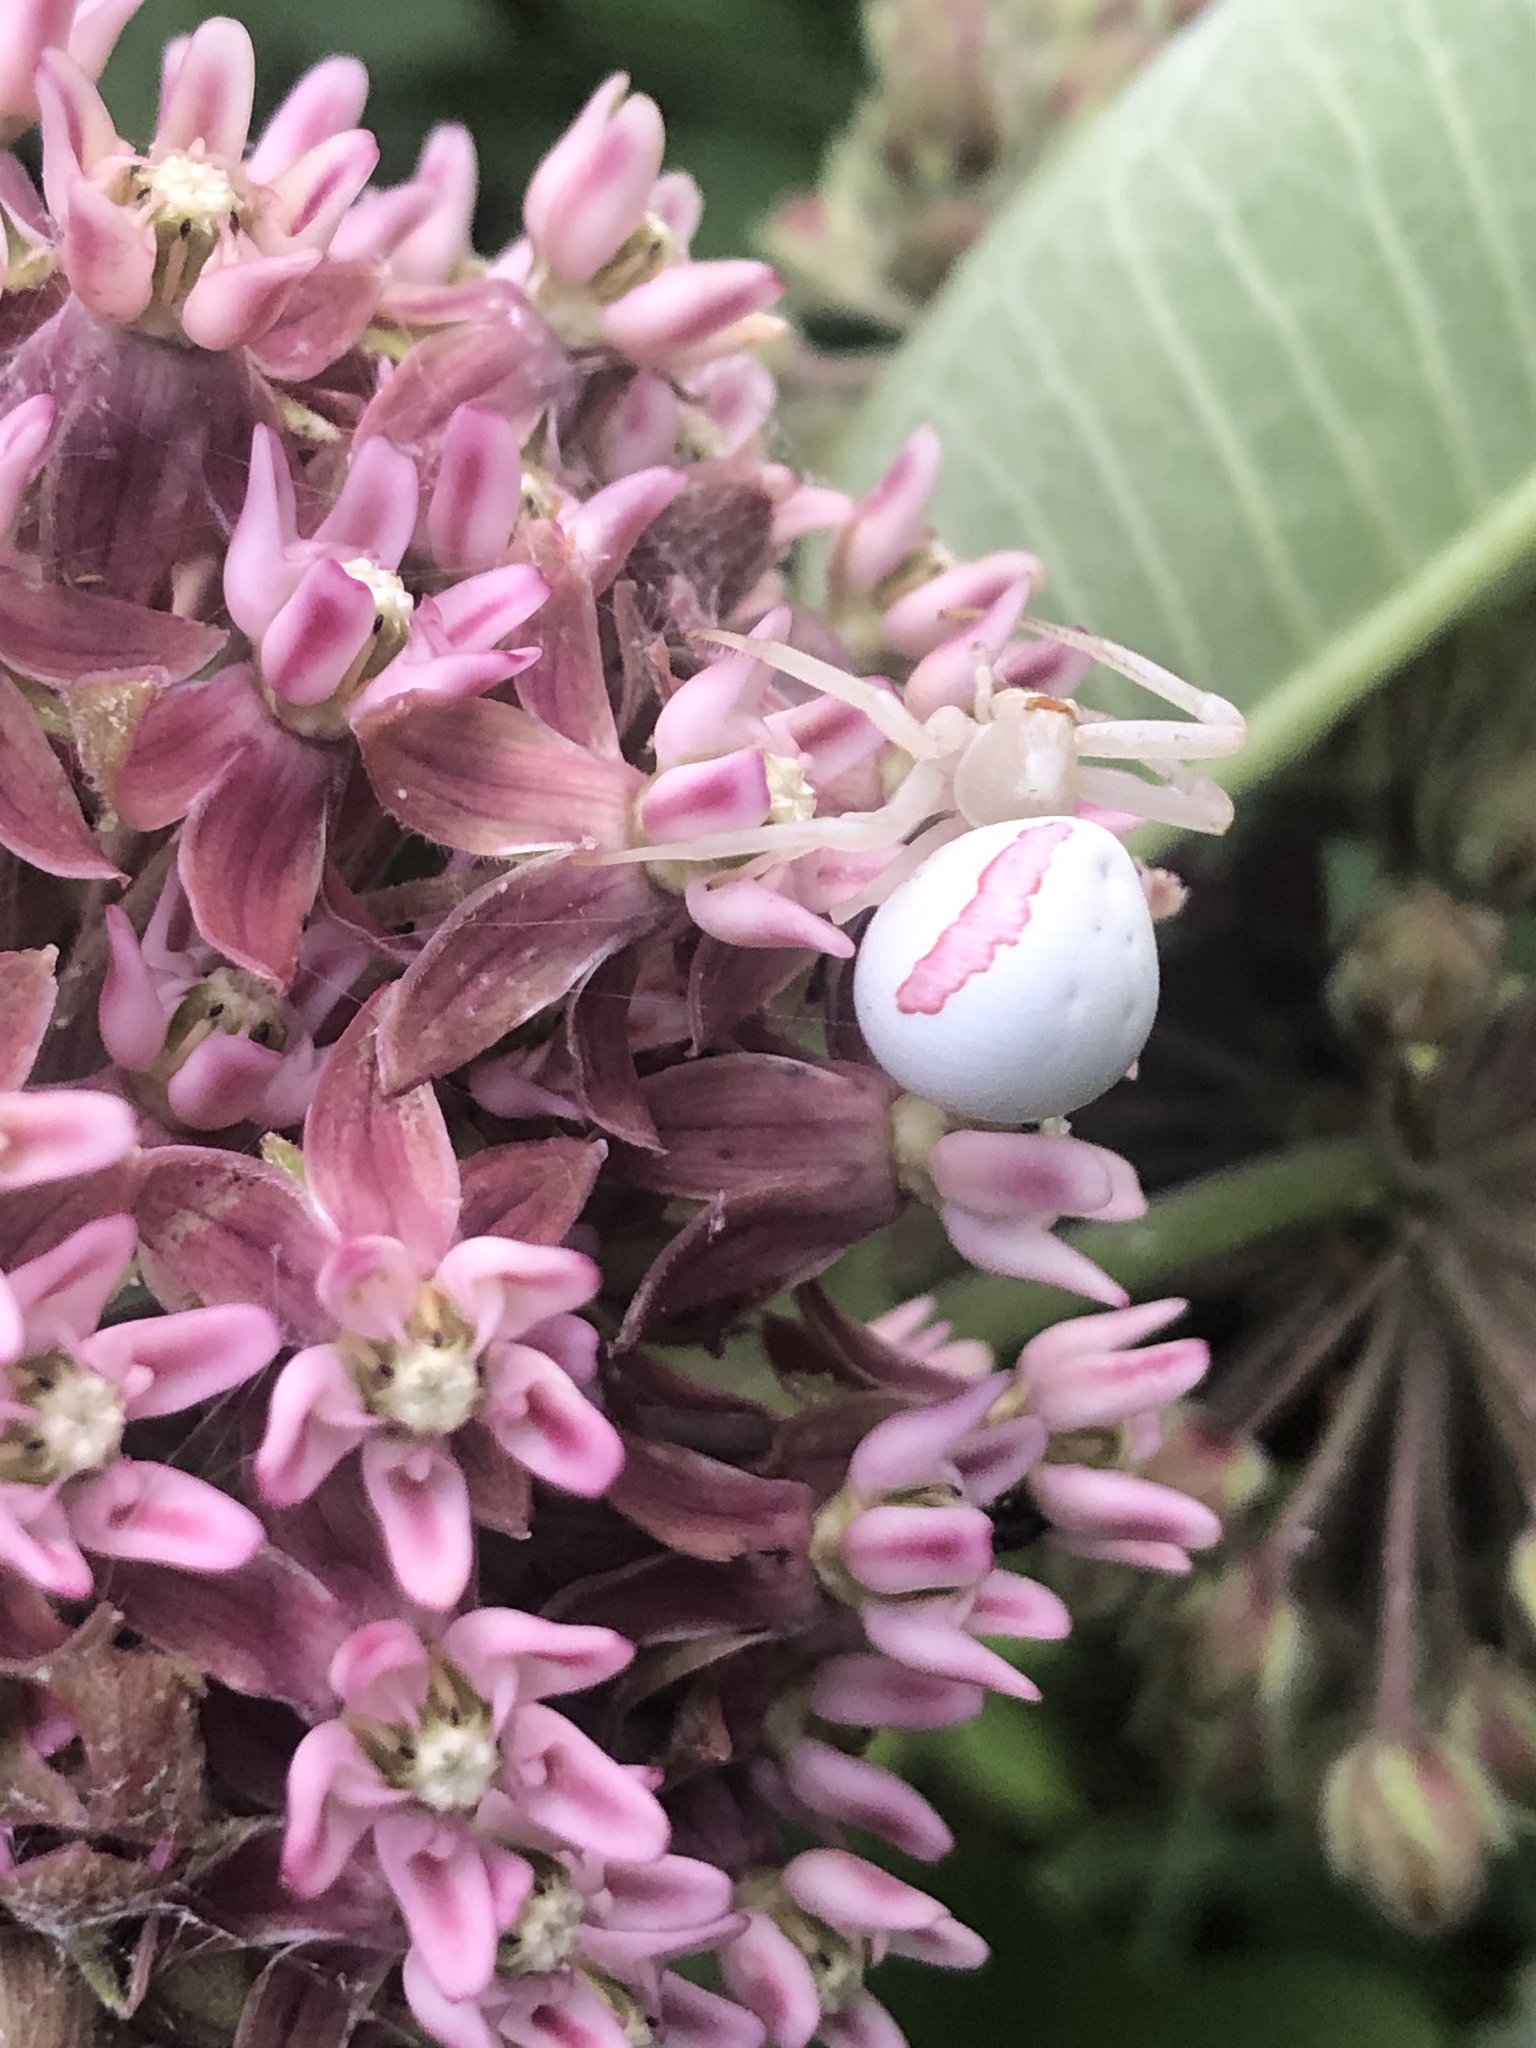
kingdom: Animalia
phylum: Arthropoda
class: Arachnida
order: Araneae
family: Thomisidae
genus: Misumena
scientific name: Misumena vatia
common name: Goldenrod crab spider
